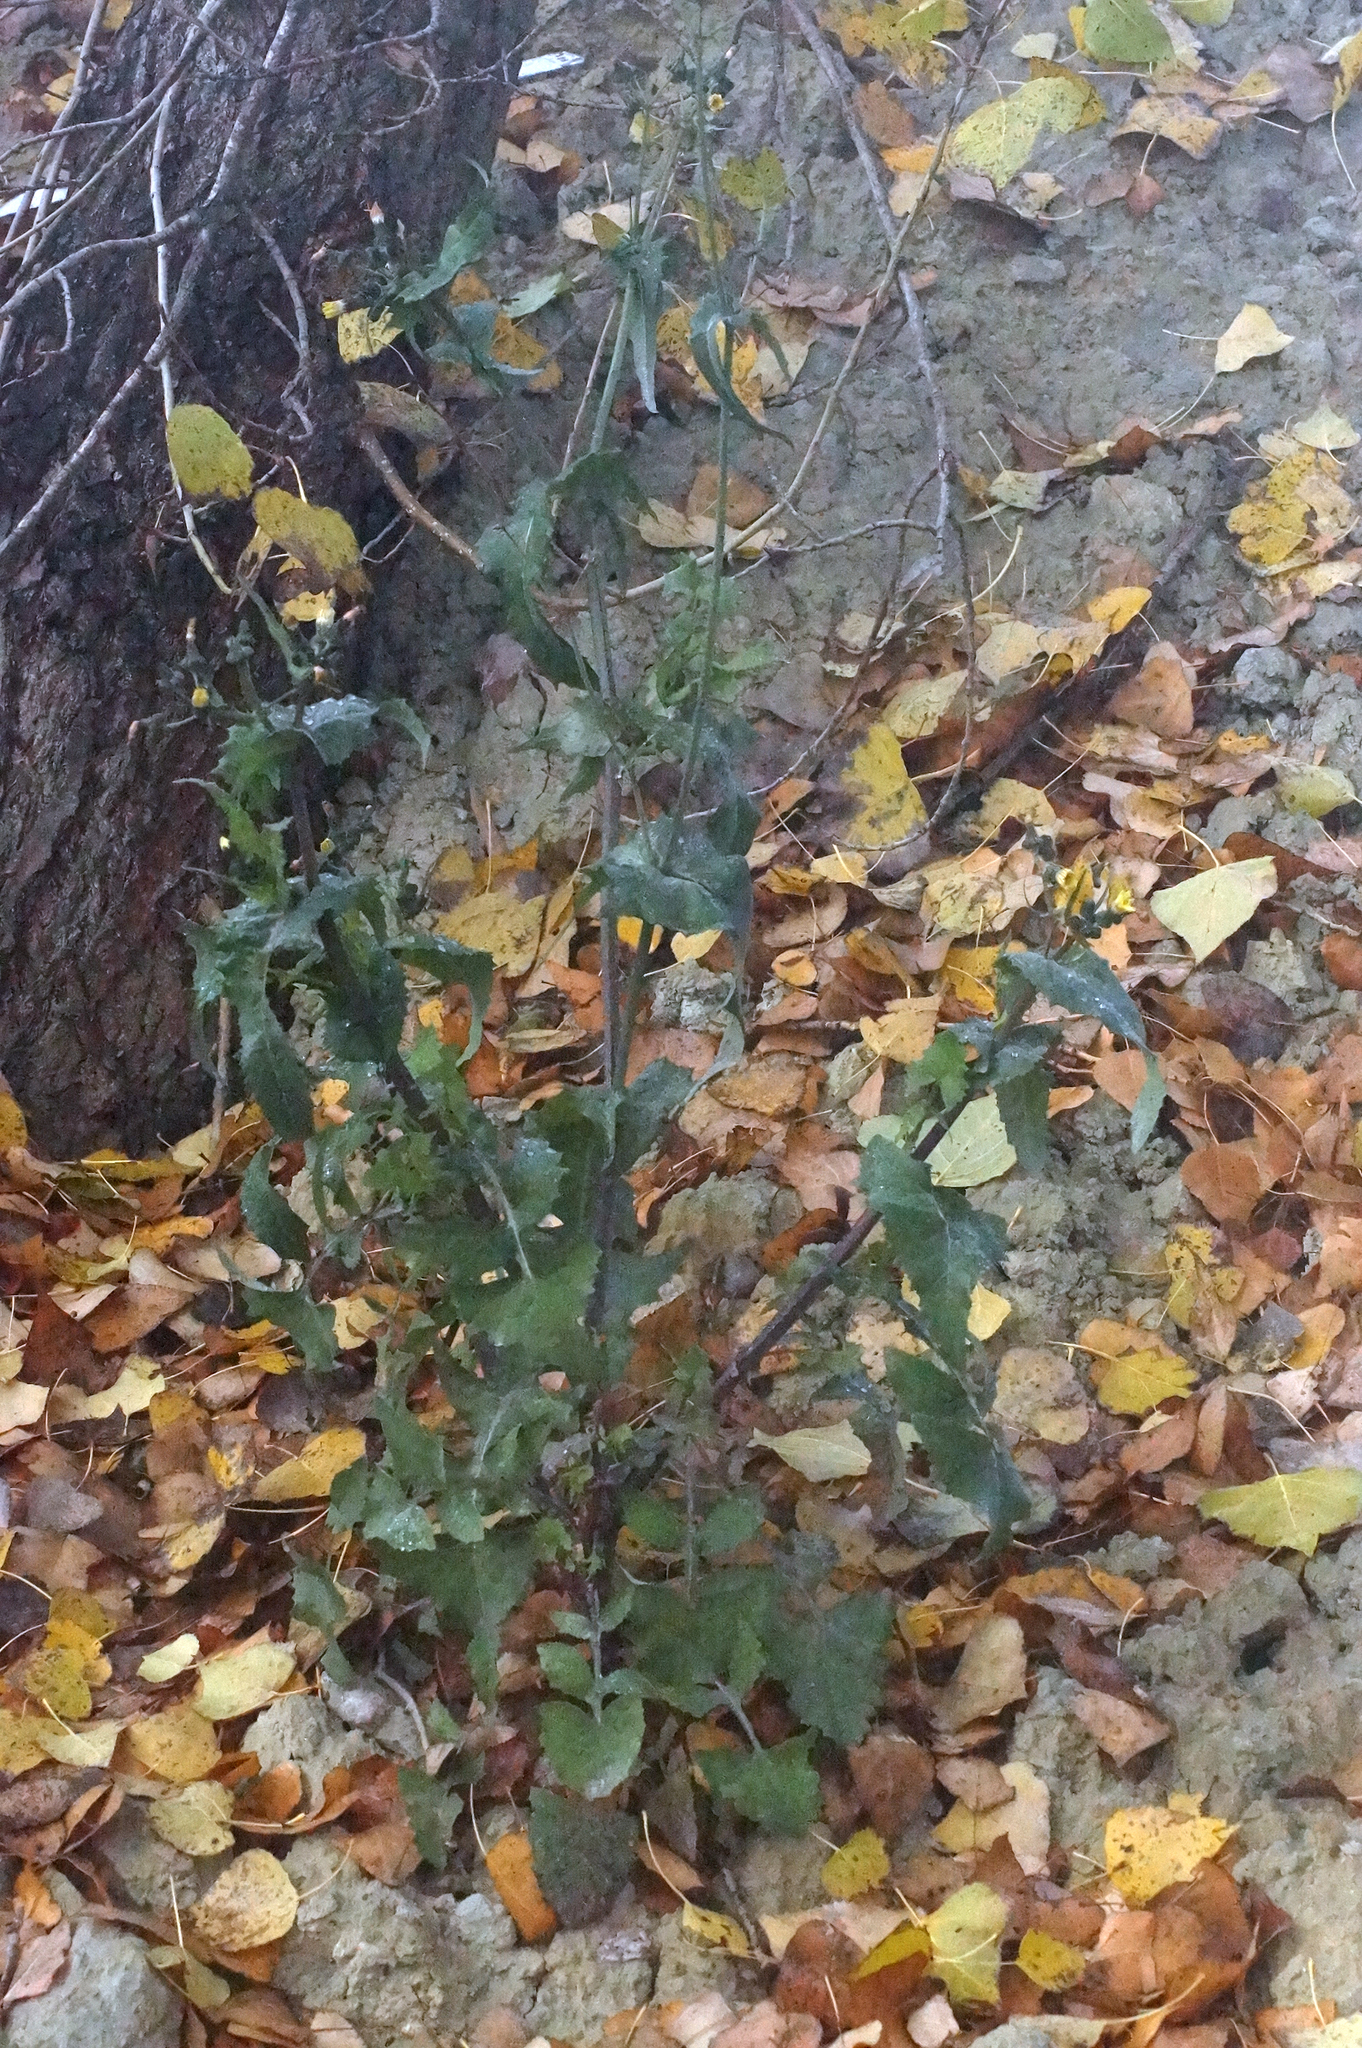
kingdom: Plantae
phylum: Tracheophyta
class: Magnoliopsida
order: Asterales
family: Asteraceae
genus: Sonchus
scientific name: Sonchus oleraceus
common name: Common sowthistle
